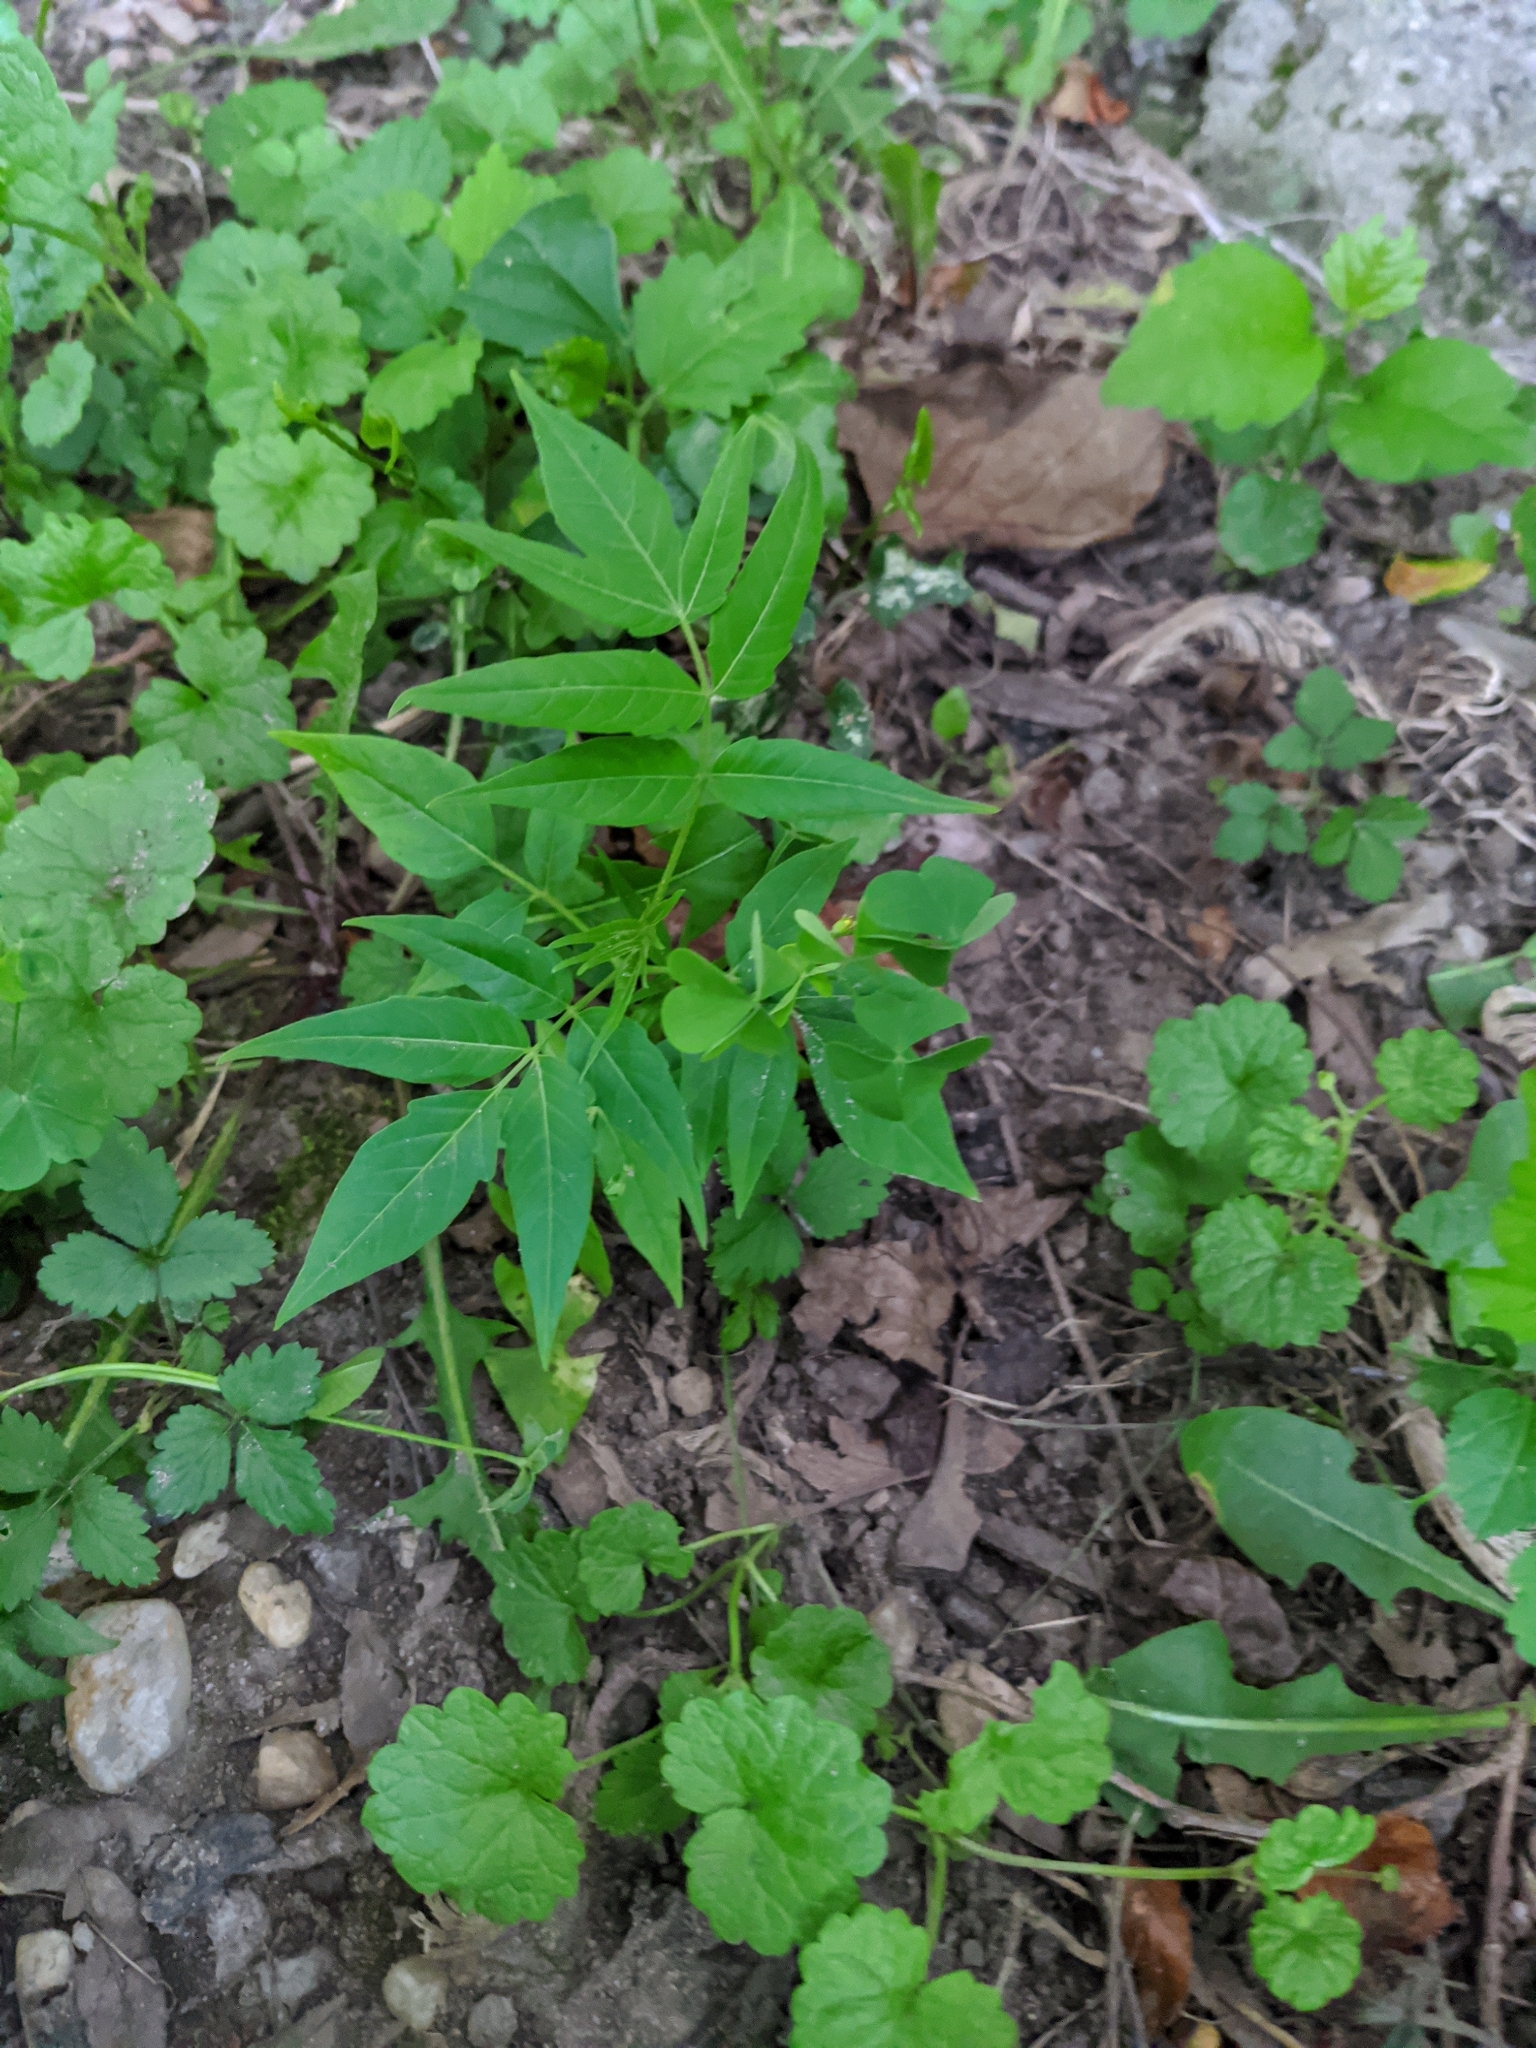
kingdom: Plantae
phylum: Tracheophyta
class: Magnoliopsida
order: Sapindales
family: Simaroubaceae
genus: Ailanthus
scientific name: Ailanthus altissima
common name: Tree-of-heaven
